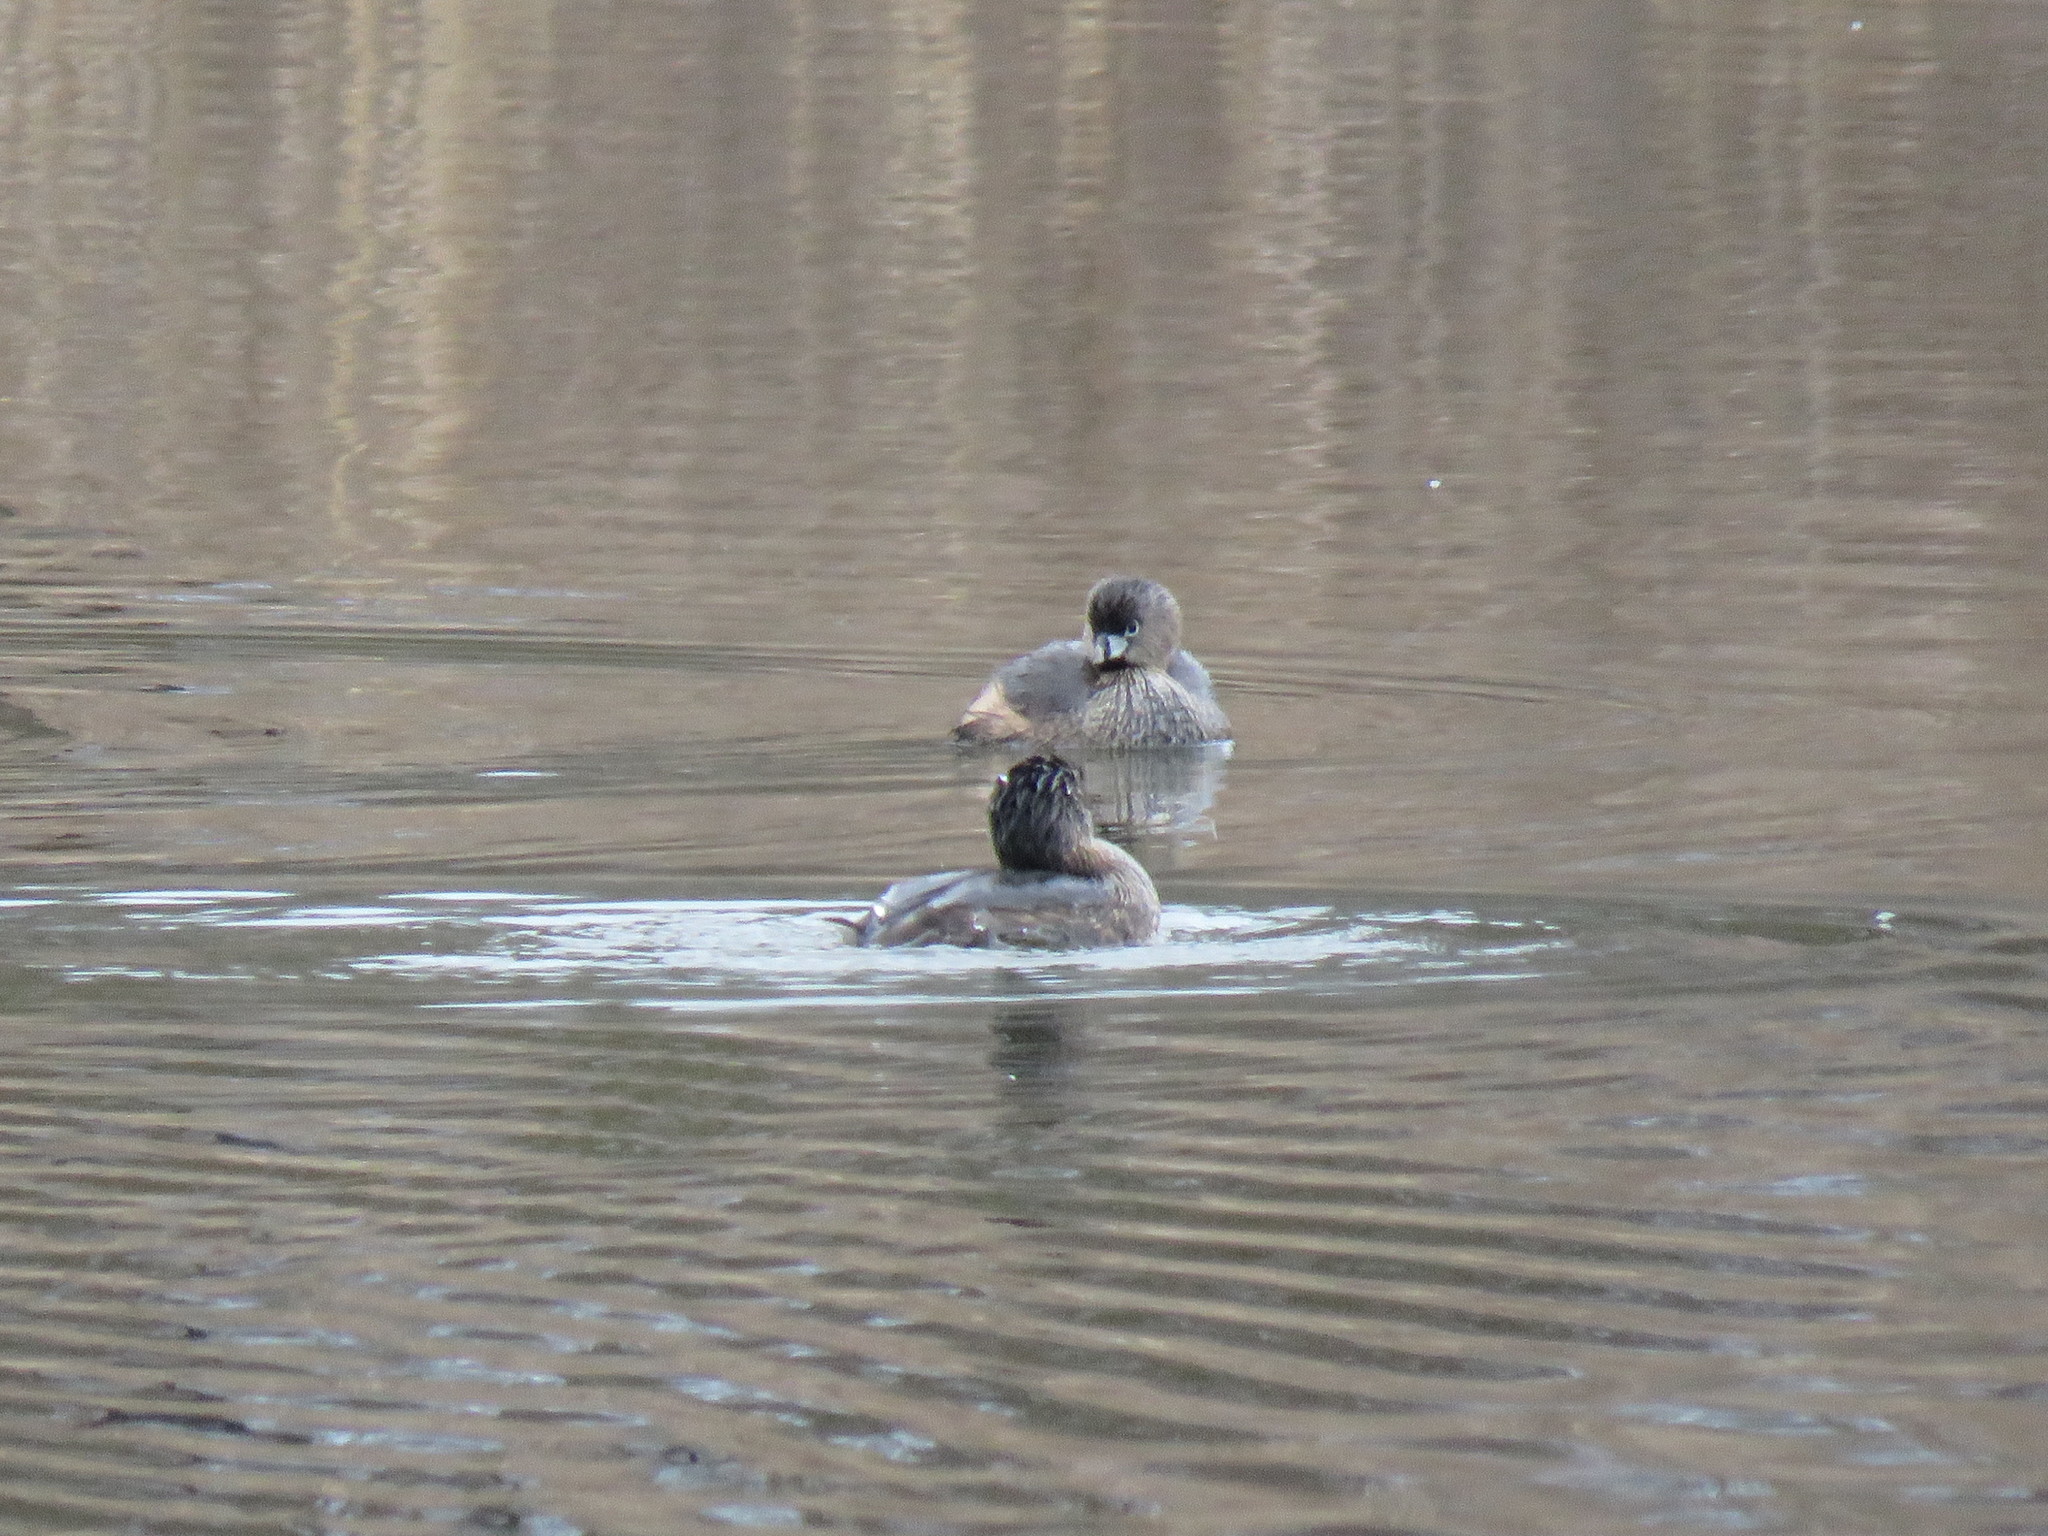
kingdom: Animalia
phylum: Chordata
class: Aves
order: Podicipediformes
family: Podicipedidae
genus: Podilymbus
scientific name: Podilymbus podiceps
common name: Pied-billed grebe
